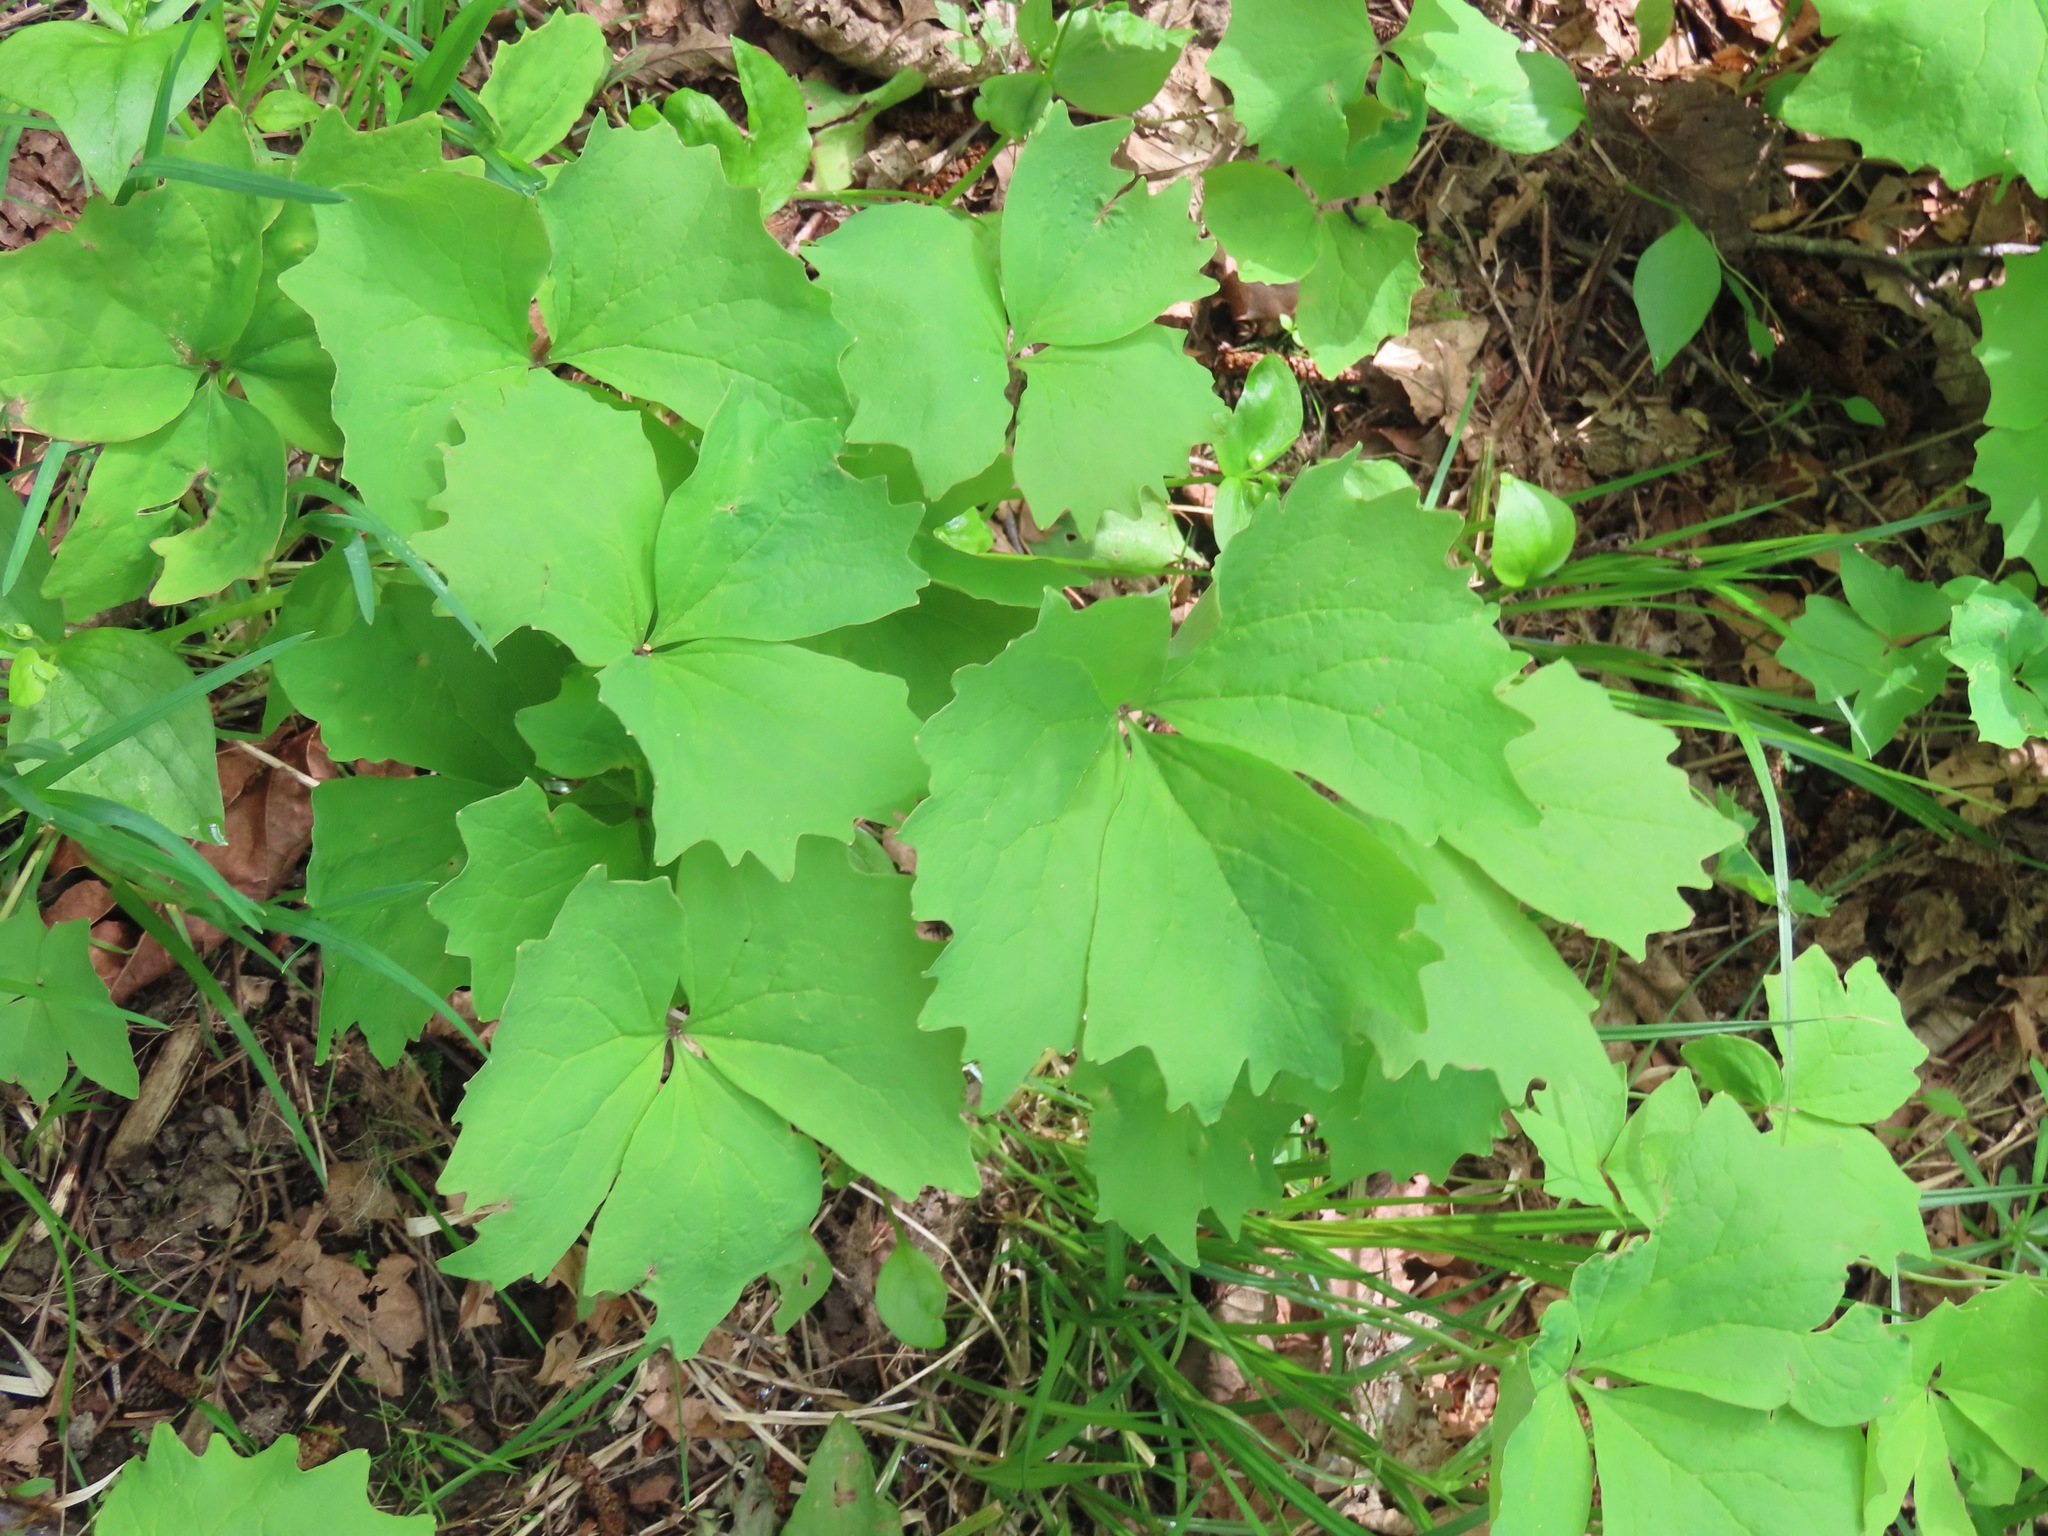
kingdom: Plantae
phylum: Tracheophyta
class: Magnoliopsida
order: Ranunculales
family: Berberidaceae
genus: Achlys
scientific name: Achlys triphylla
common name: Vanilla-leaf
